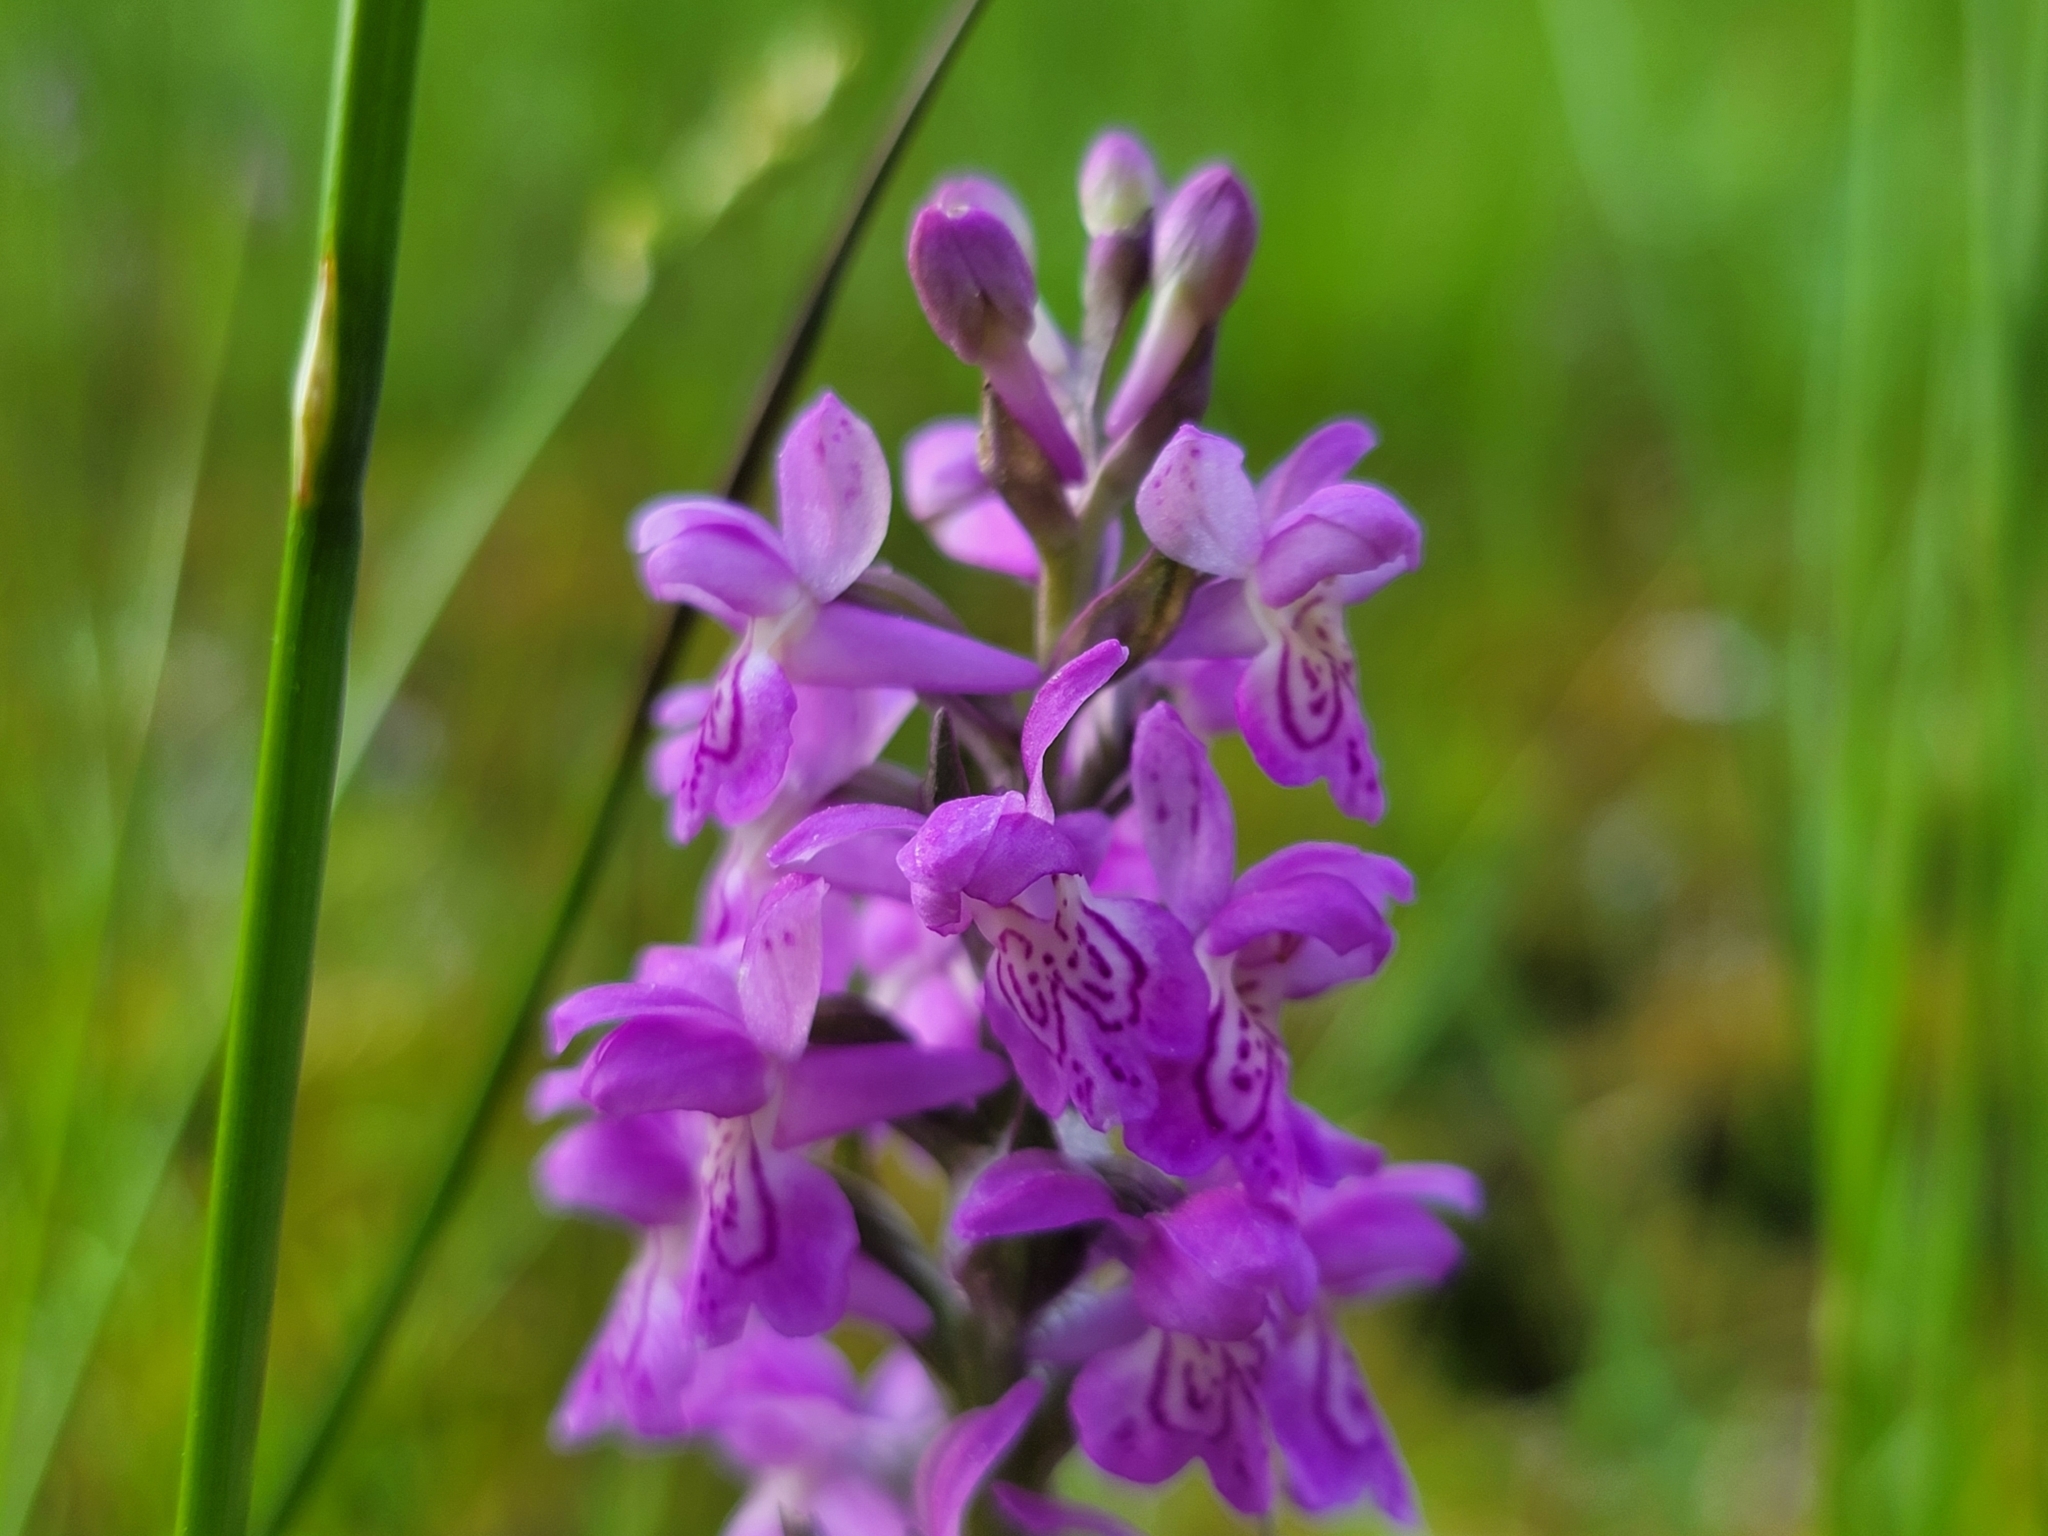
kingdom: Plantae
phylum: Tracheophyta
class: Liliopsida
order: Asparagales
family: Orchidaceae
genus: Dactylorhiza
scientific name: Dactylorhiza majalis
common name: Marsh orchid
